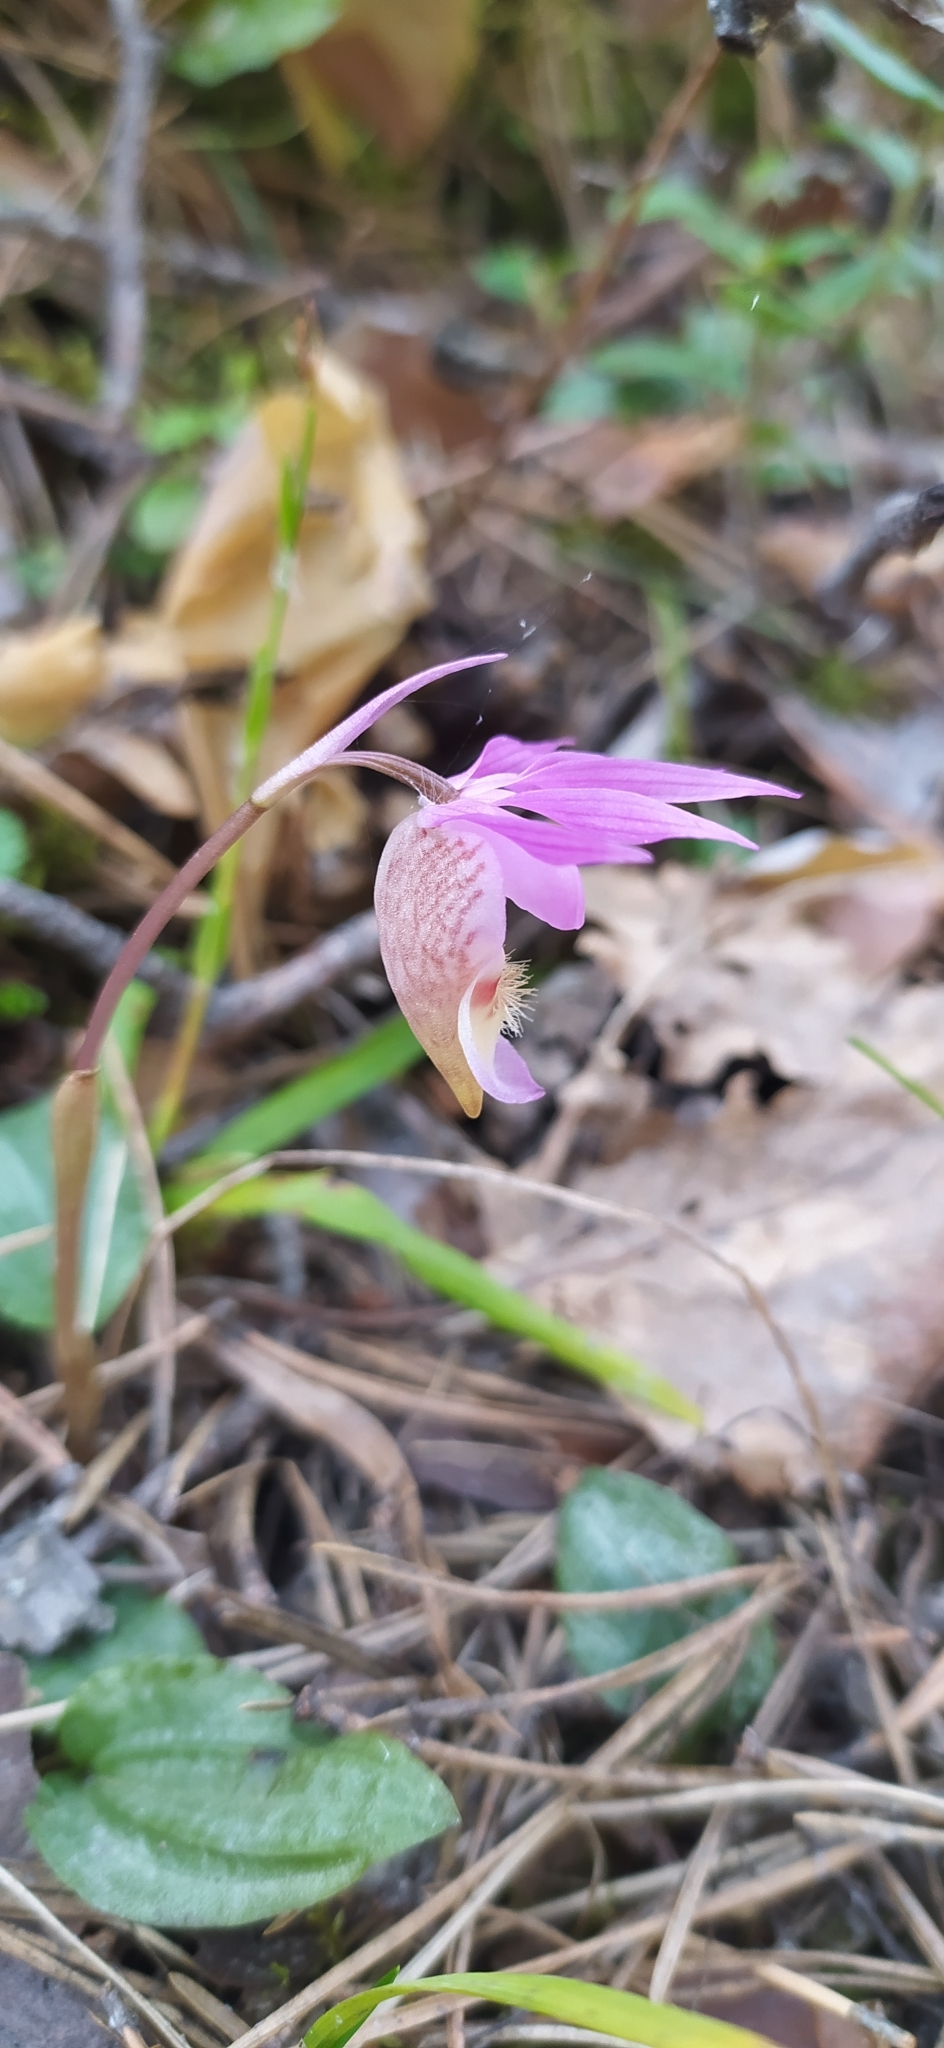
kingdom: Plantae
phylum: Tracheophyta
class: Liliopsida
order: Asparagales
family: Orchidaceae
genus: Calypso
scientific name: Calypso bulbosa
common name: Calypso
